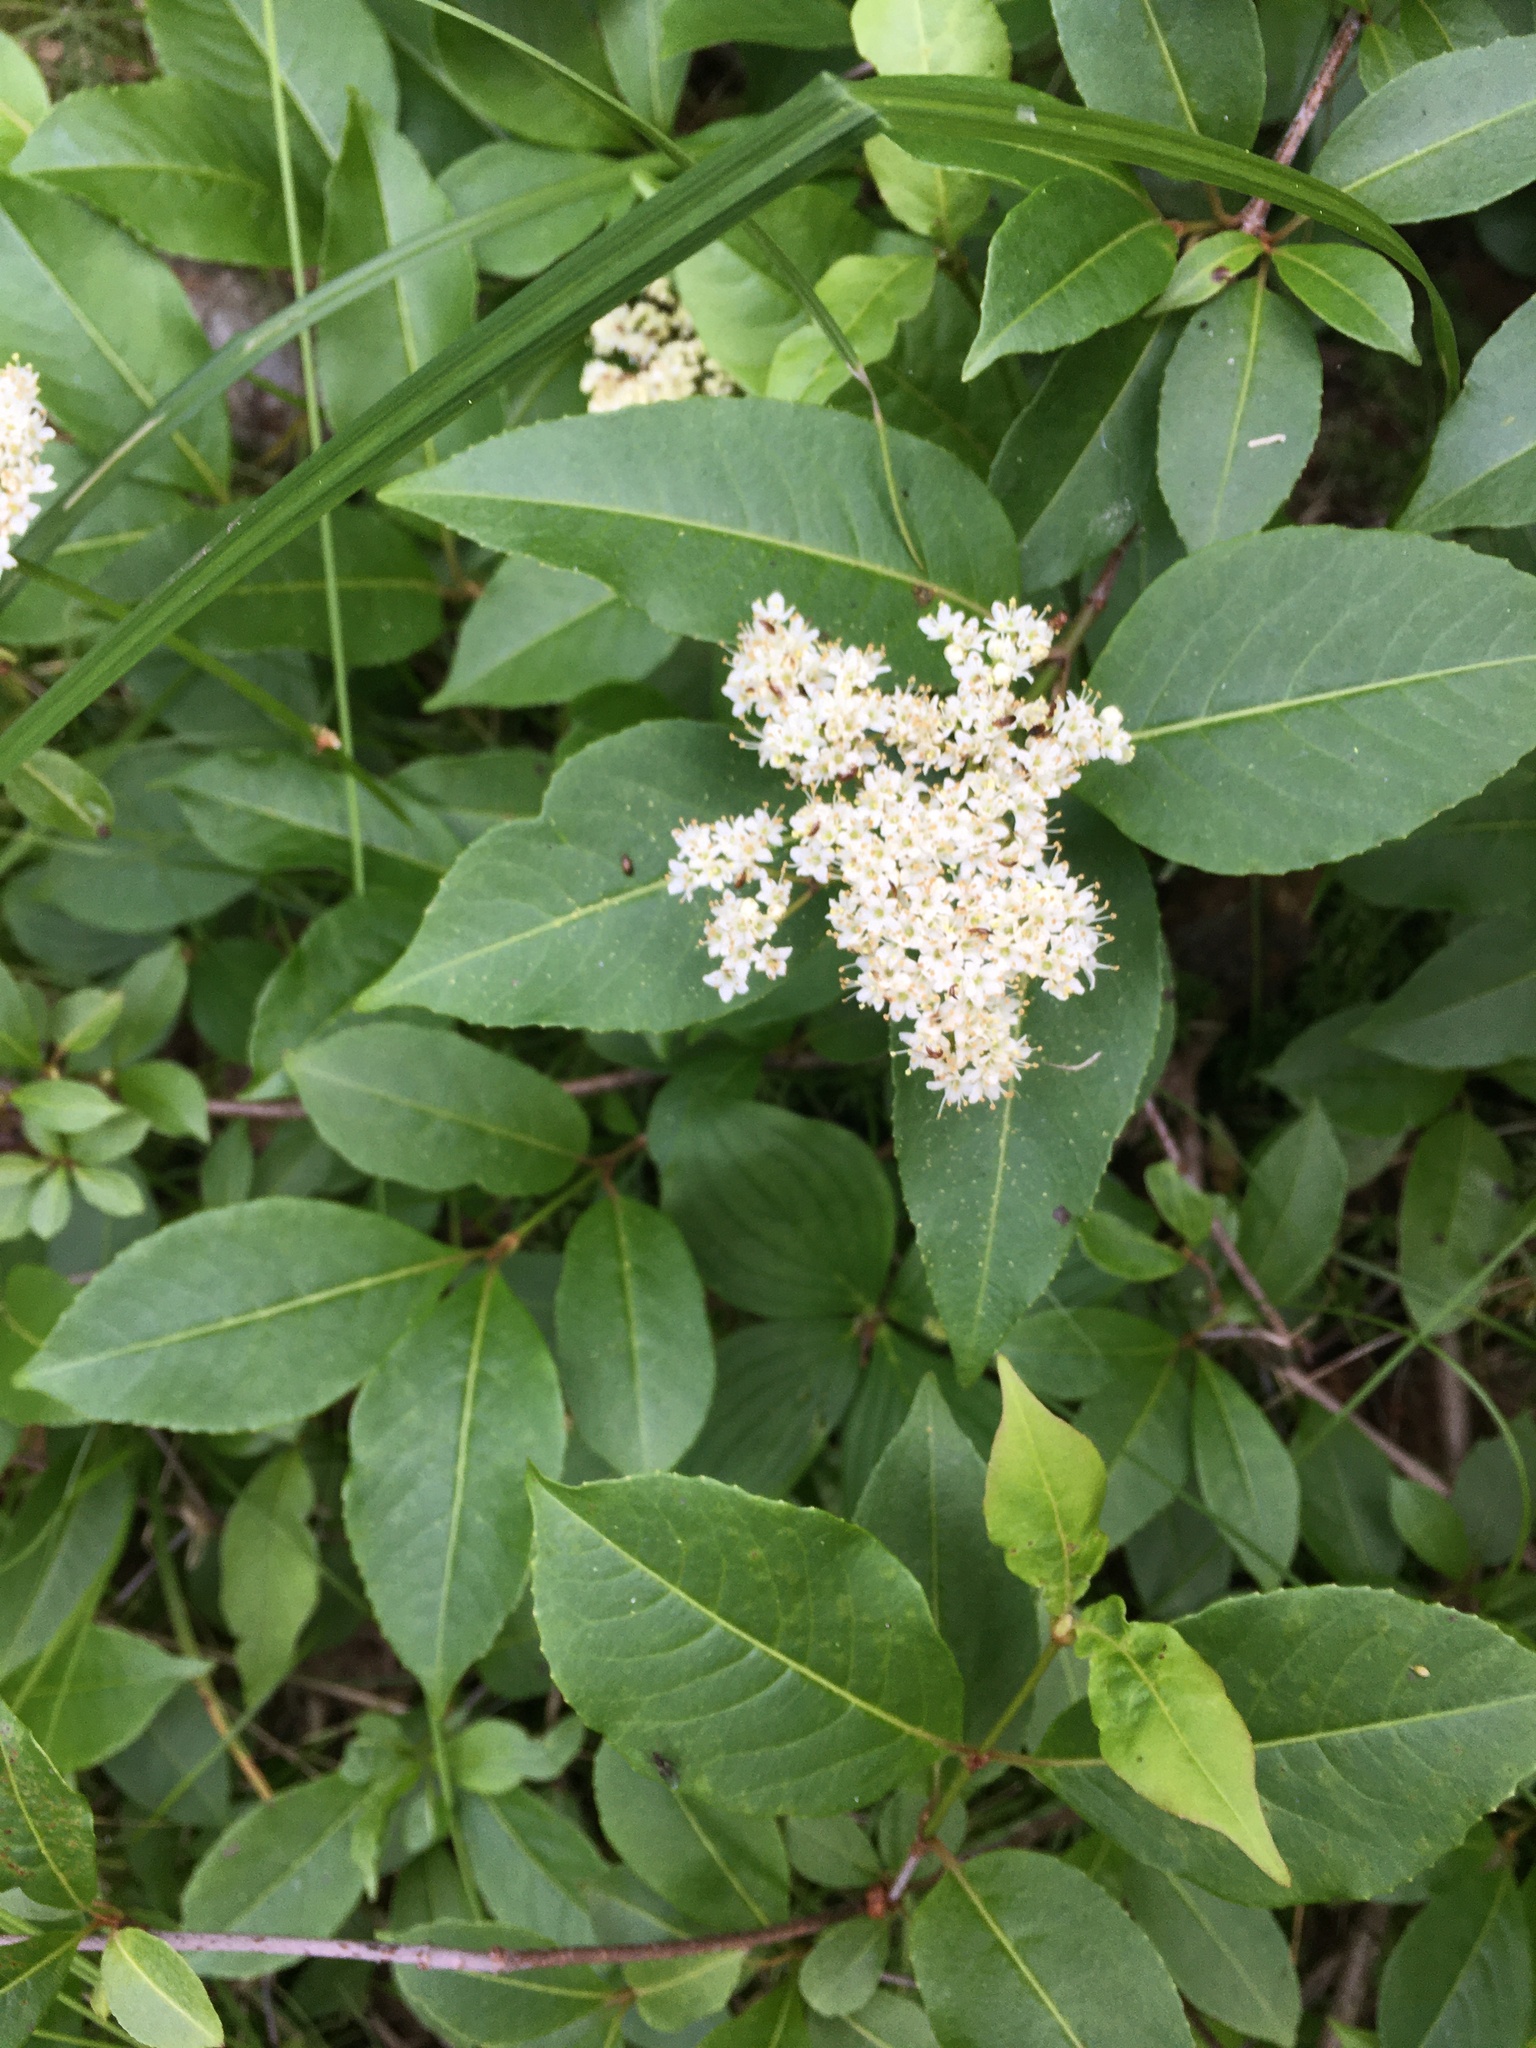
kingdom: Plantae
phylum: Tracheophyta
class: Magnoliopsida
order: Dipsacales
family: Viburnaceae
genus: Viburnum
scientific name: Viburnum cassinoides
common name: Swamp haw
